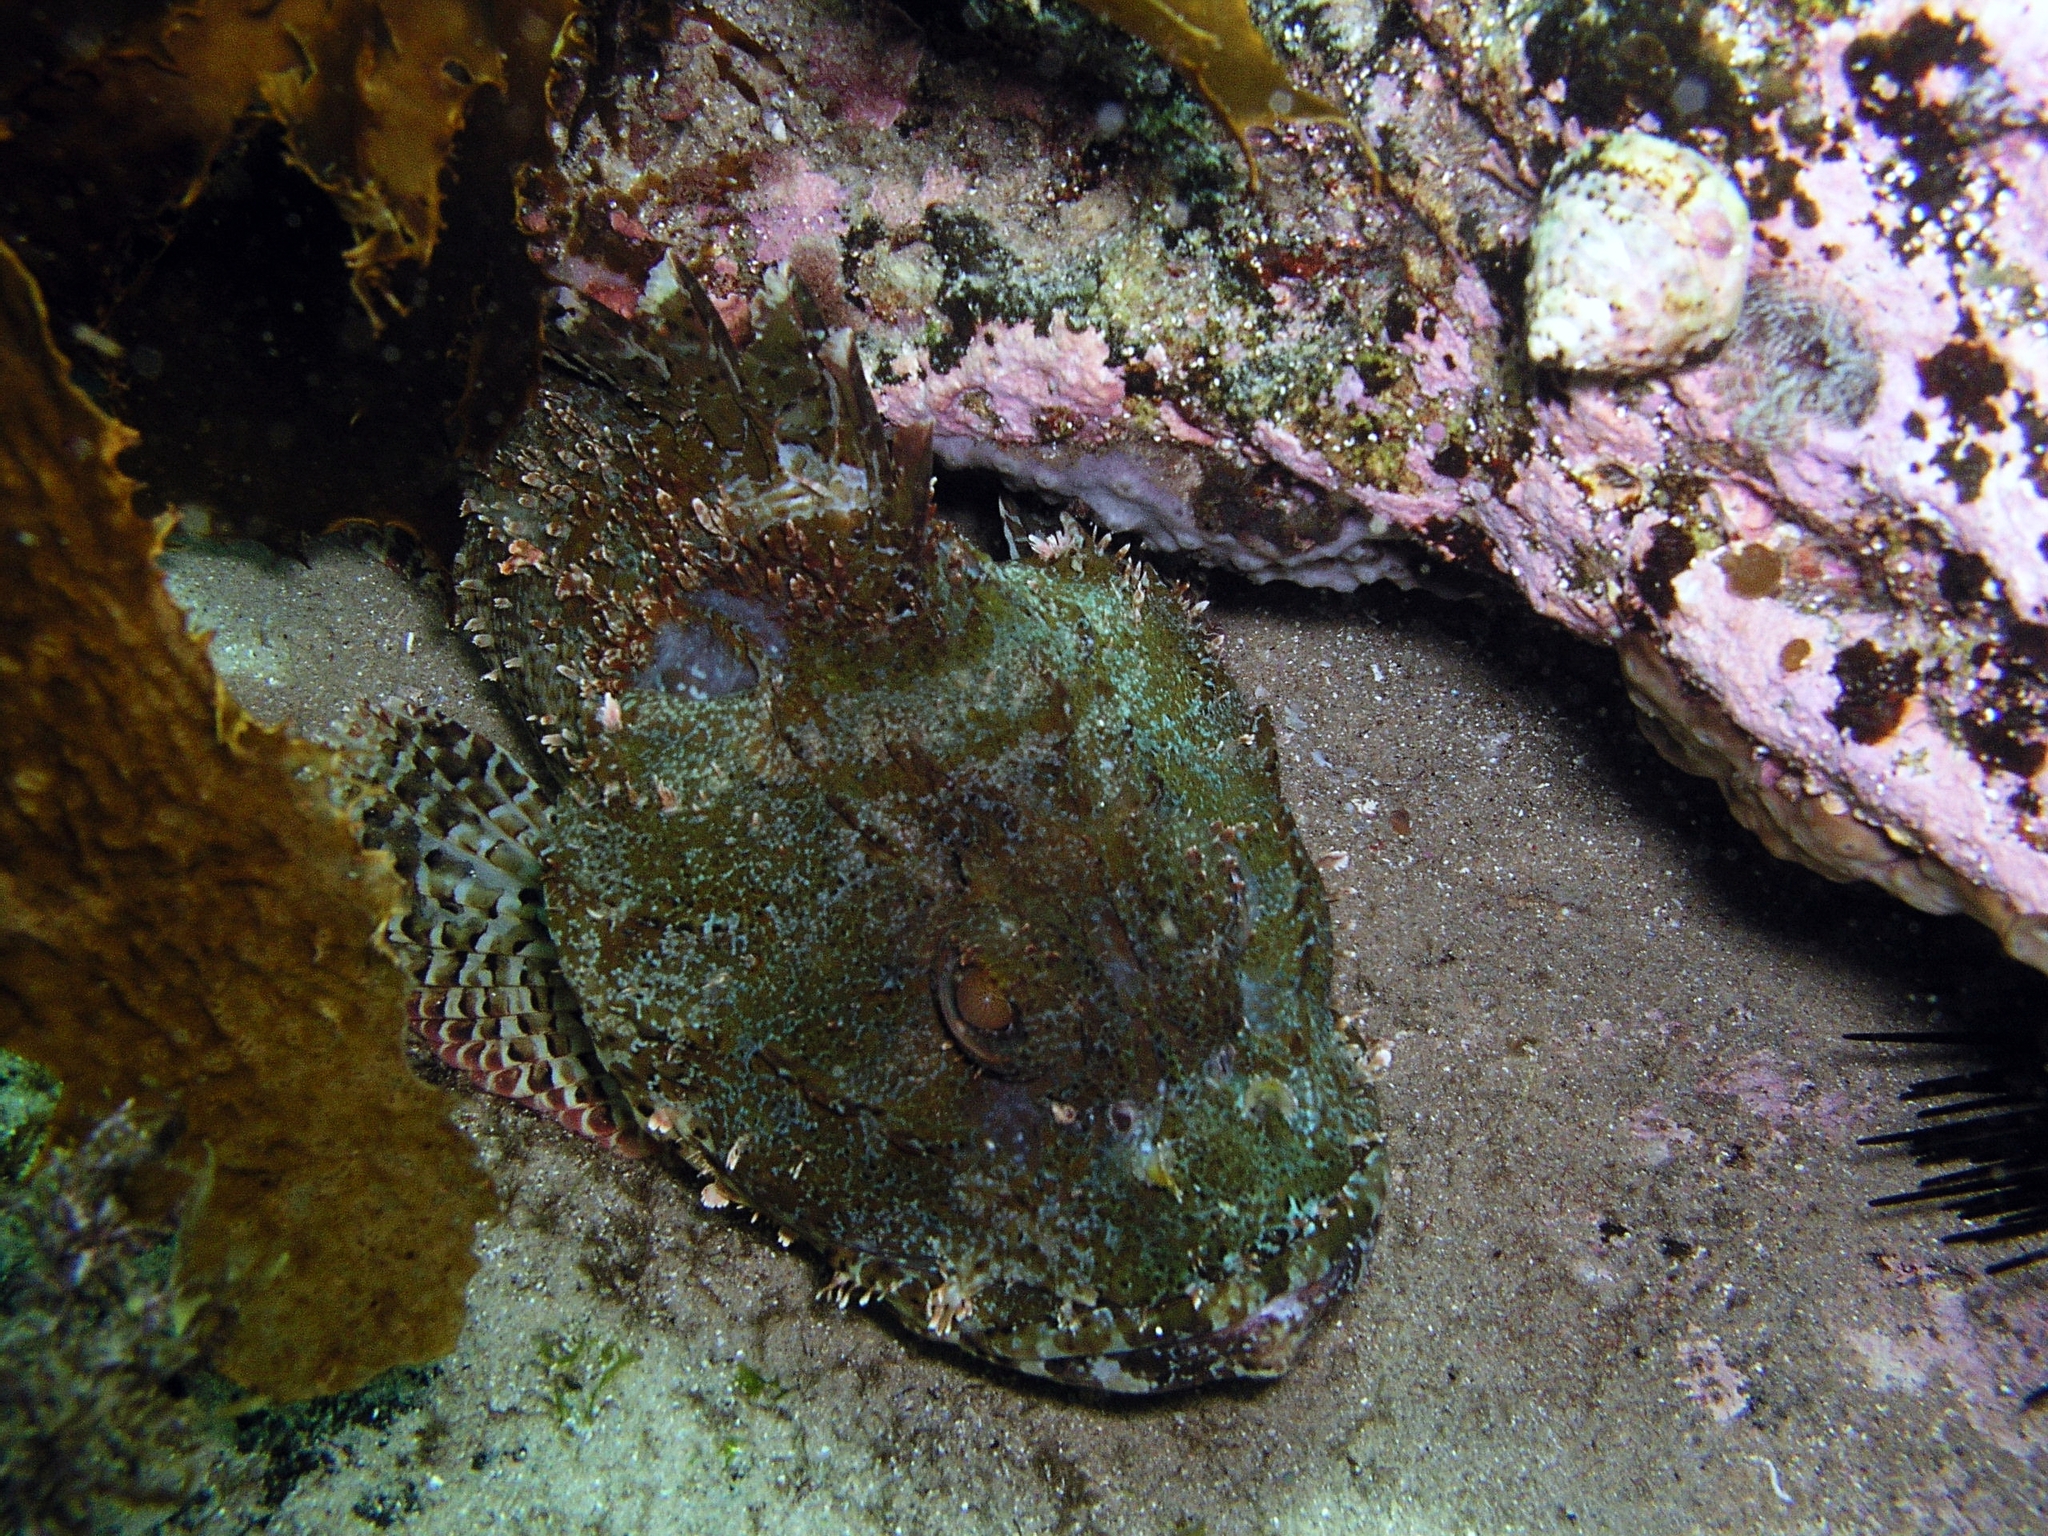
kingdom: Animalia
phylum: Chordata
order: Scorpaeniformes
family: Scorpaenidae
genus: Scorpaena
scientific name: Scorpaena jacksoniensis
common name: Eastern red scorpionfish
